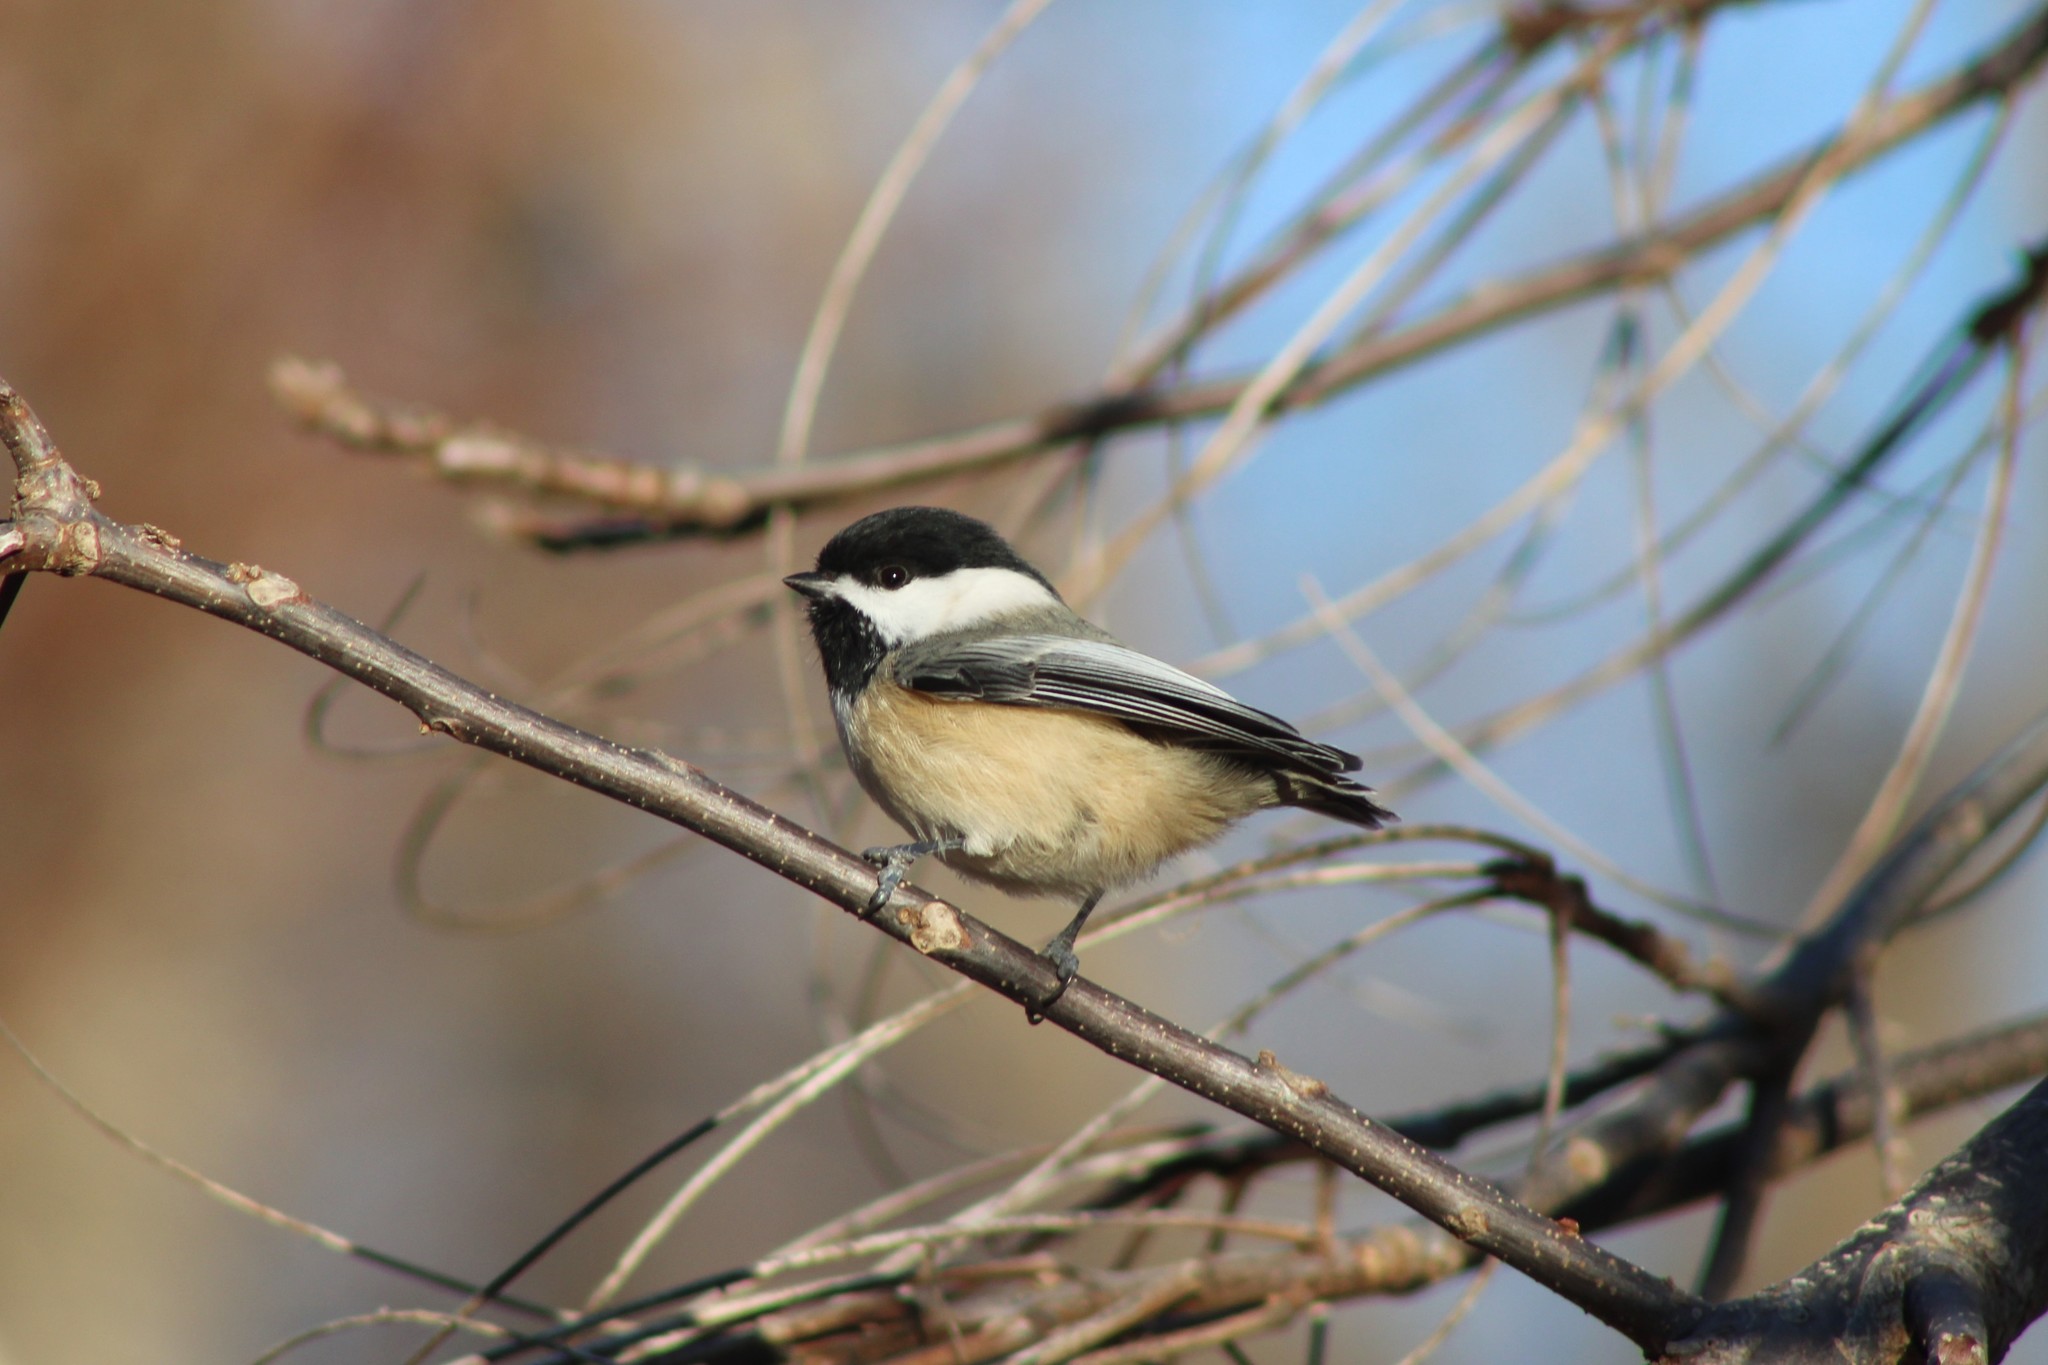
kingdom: Animalia
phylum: Chordata
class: Aves
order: Passeriformes
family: Paridae
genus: Poecile
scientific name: Poecile atricapillus
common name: Black-capped chickadee
